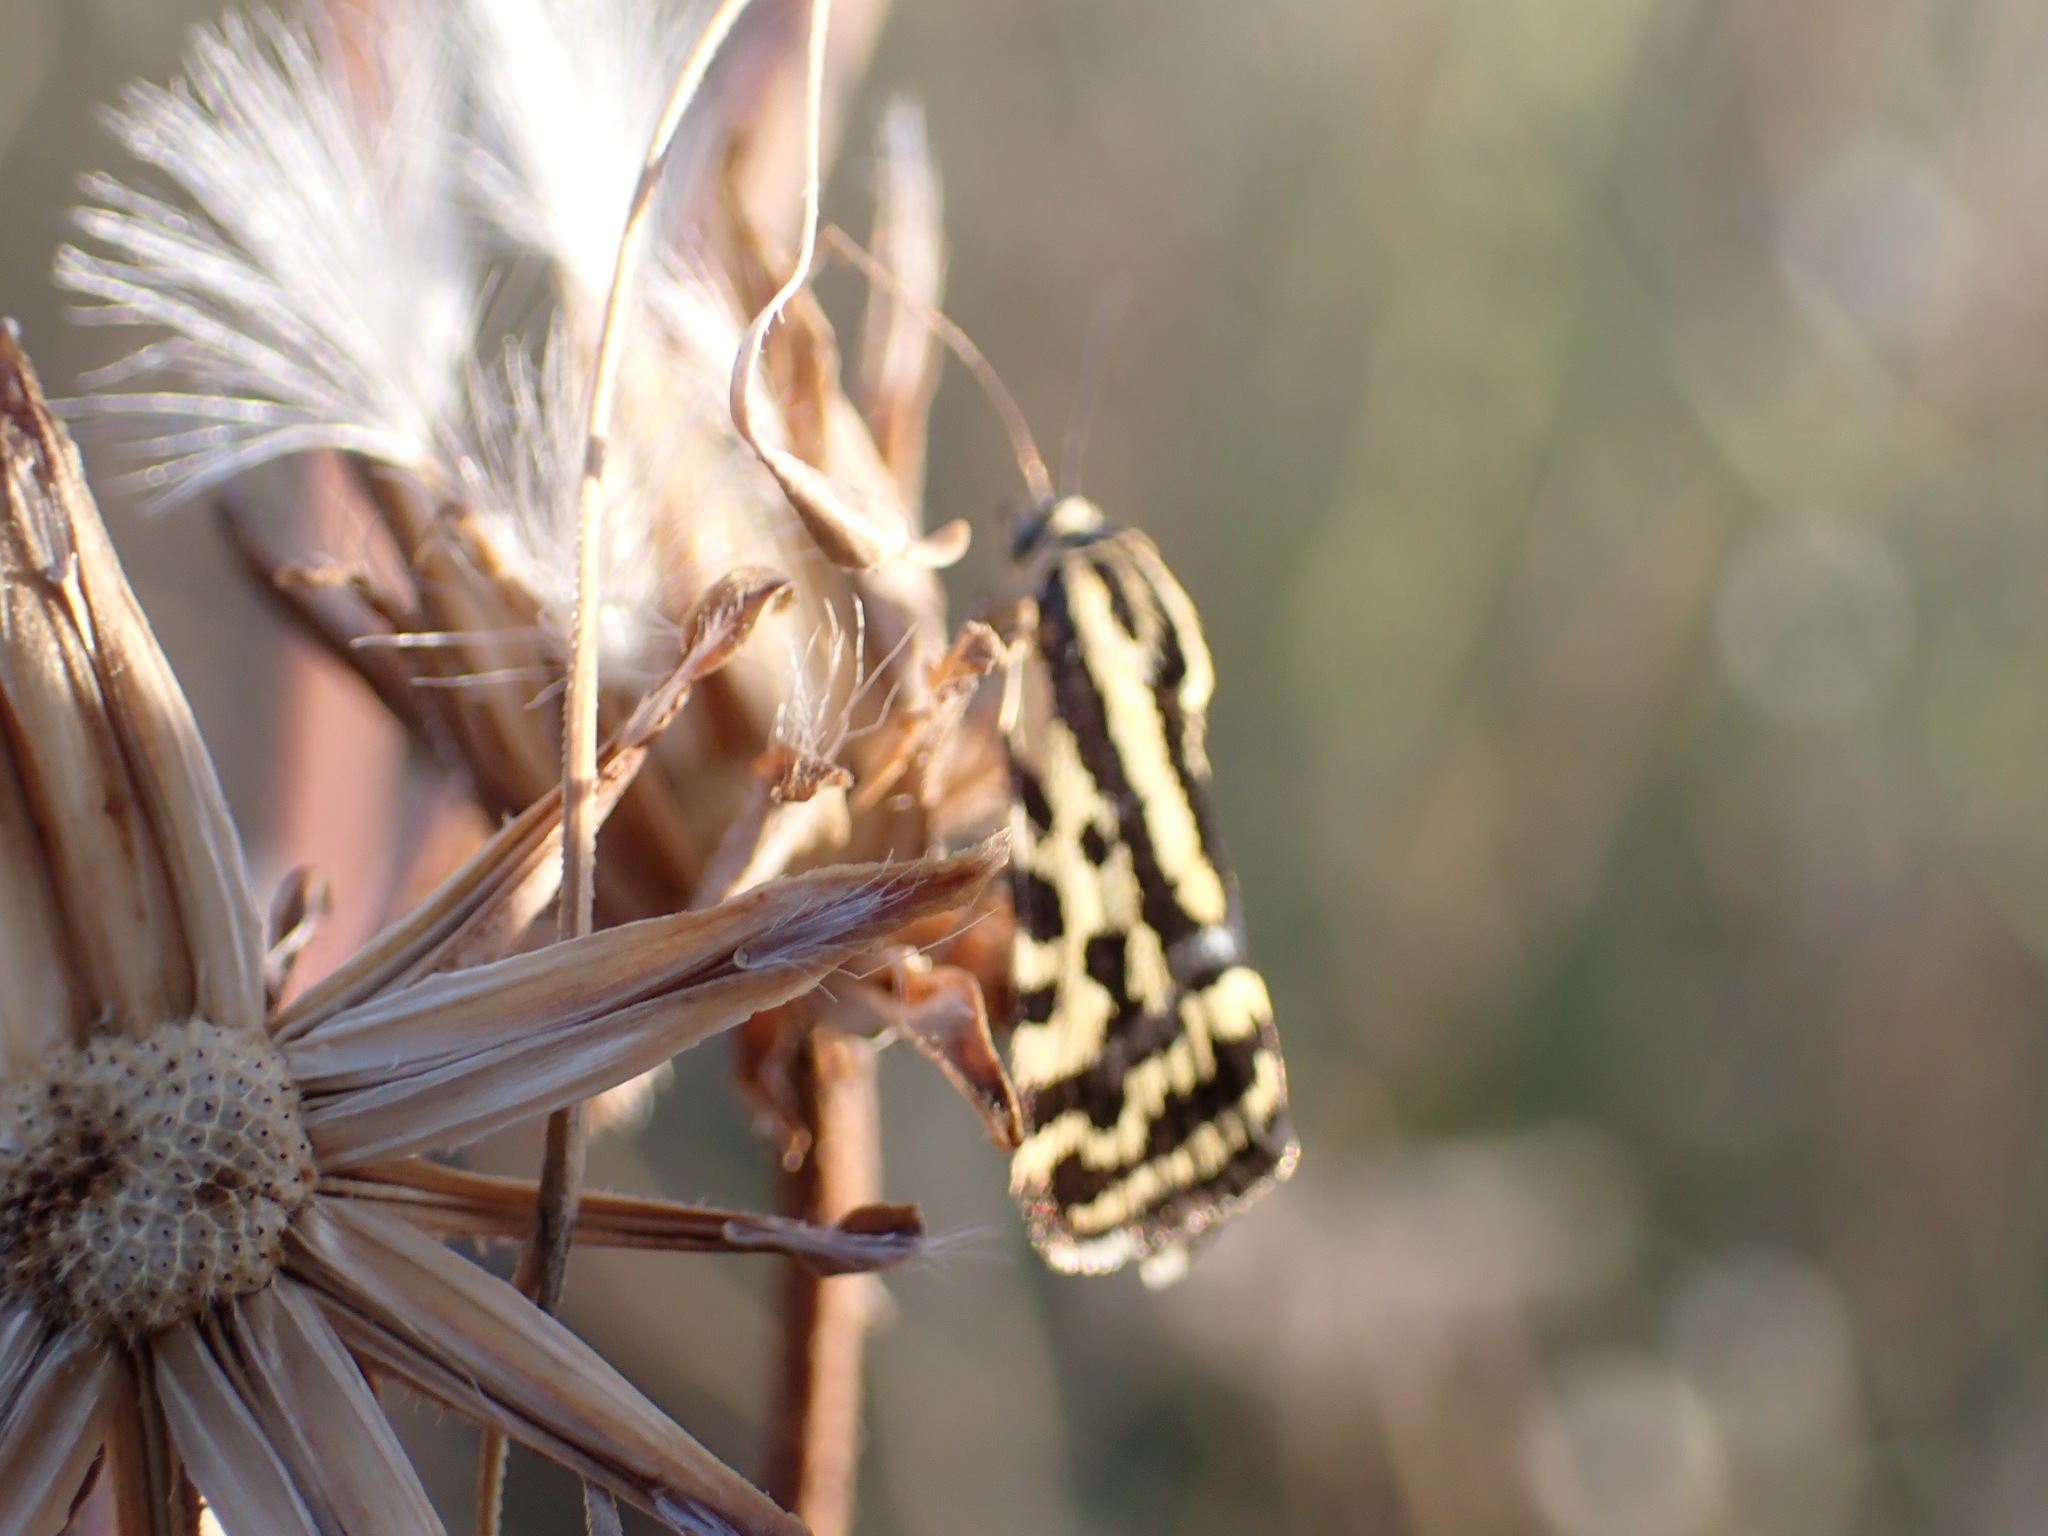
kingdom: Animalia
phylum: Arthropoda
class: Insecta
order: Lepidoptera
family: Noctuidae
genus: Acontia
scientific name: Acontia trabealis
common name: Spotted sulphur
